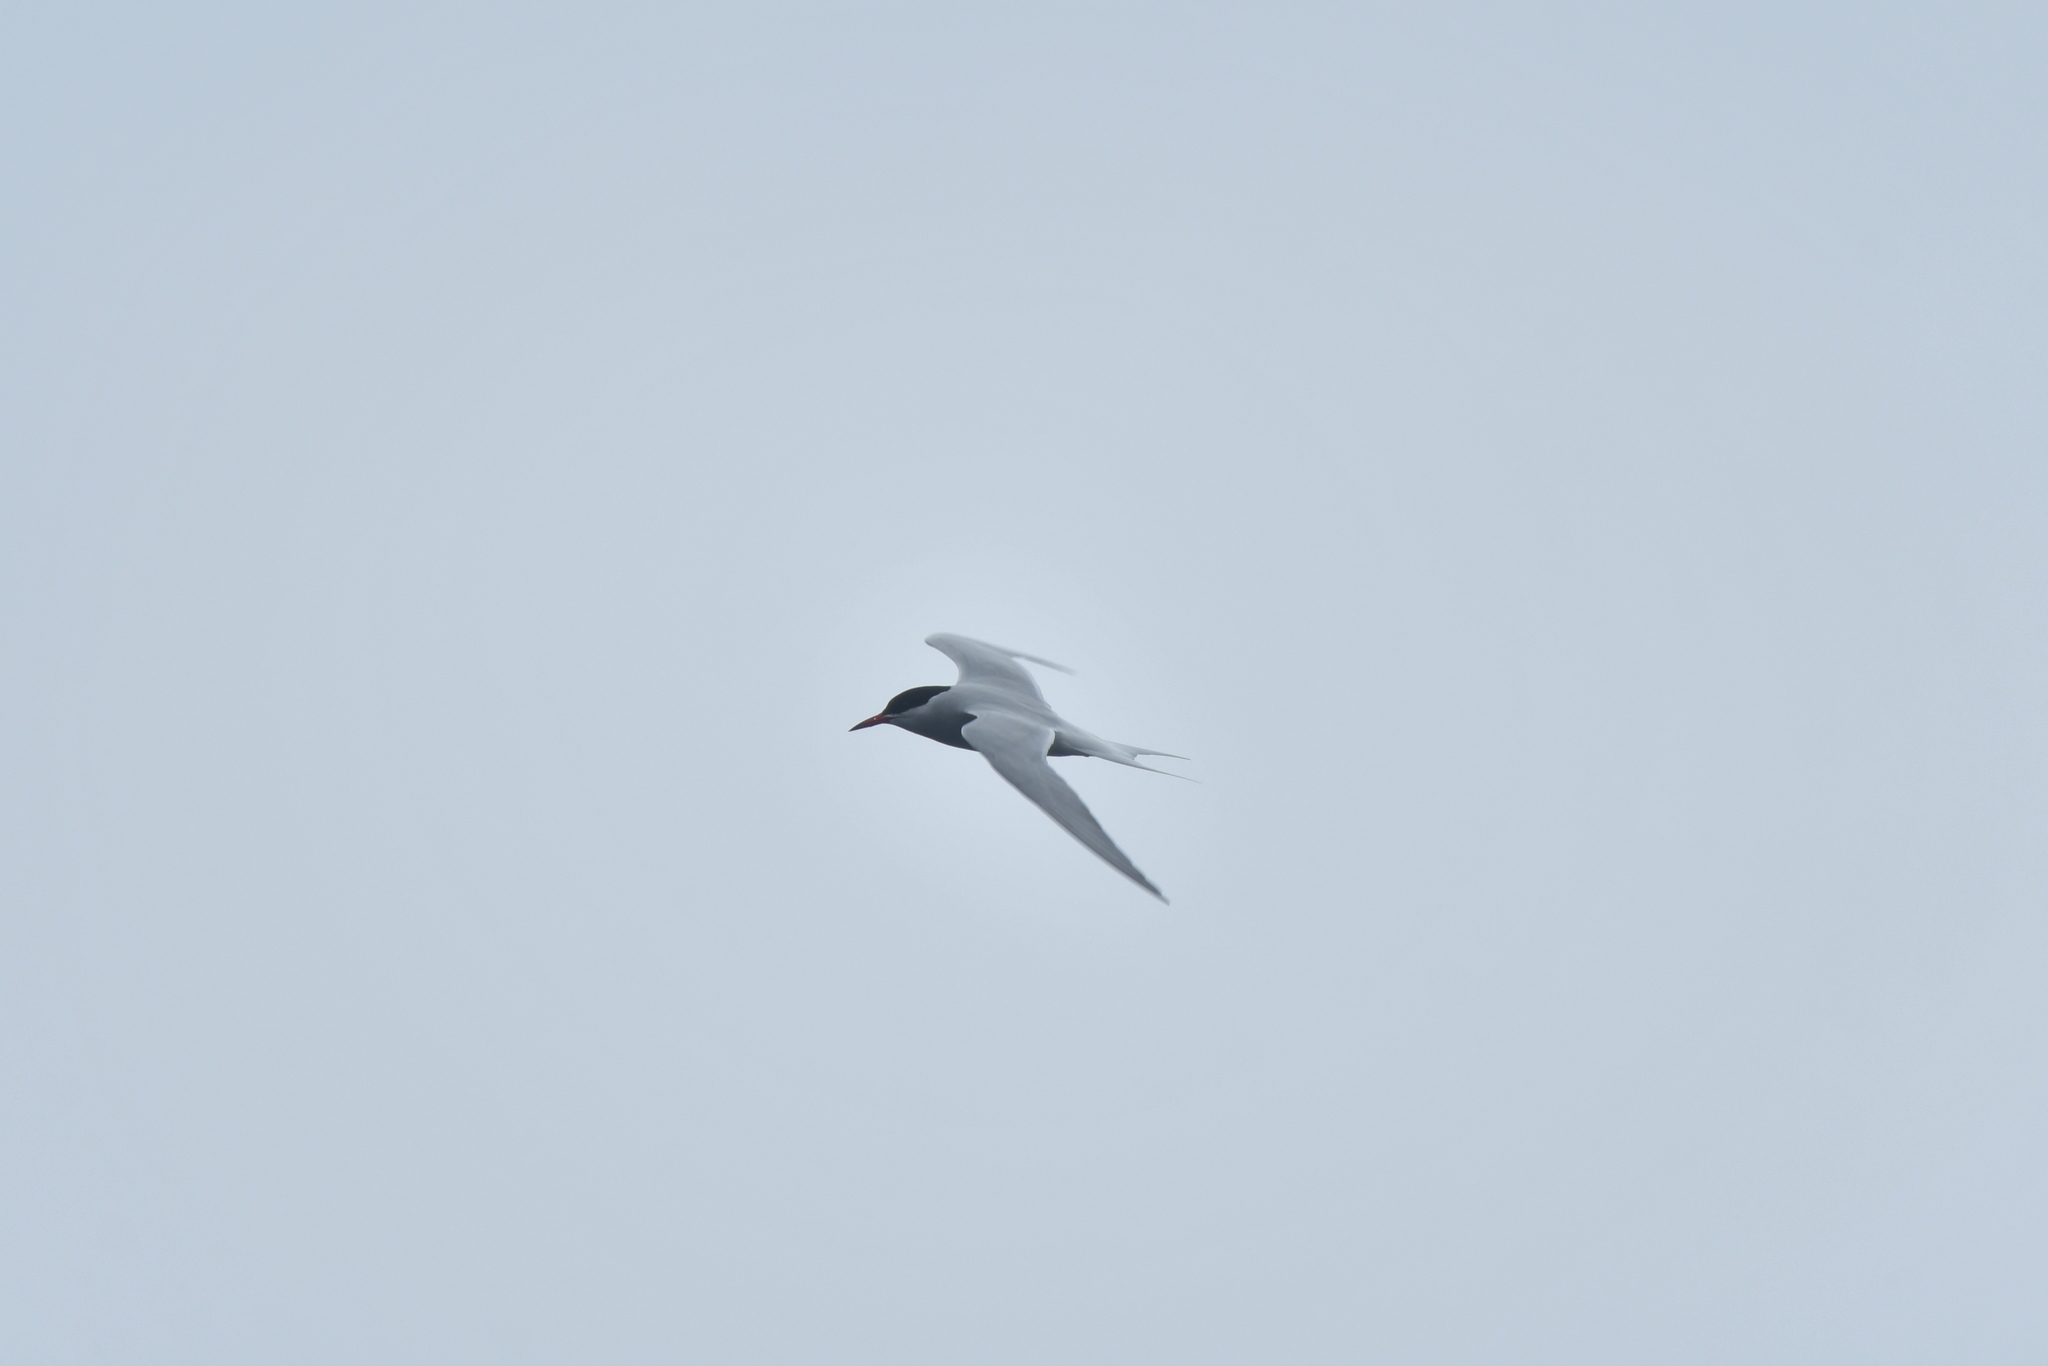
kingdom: Animalia
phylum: Chordata
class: Aves
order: Charadriiformes
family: Laridae
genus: Sterna
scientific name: Sterna vittata
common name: Antarctic tern
